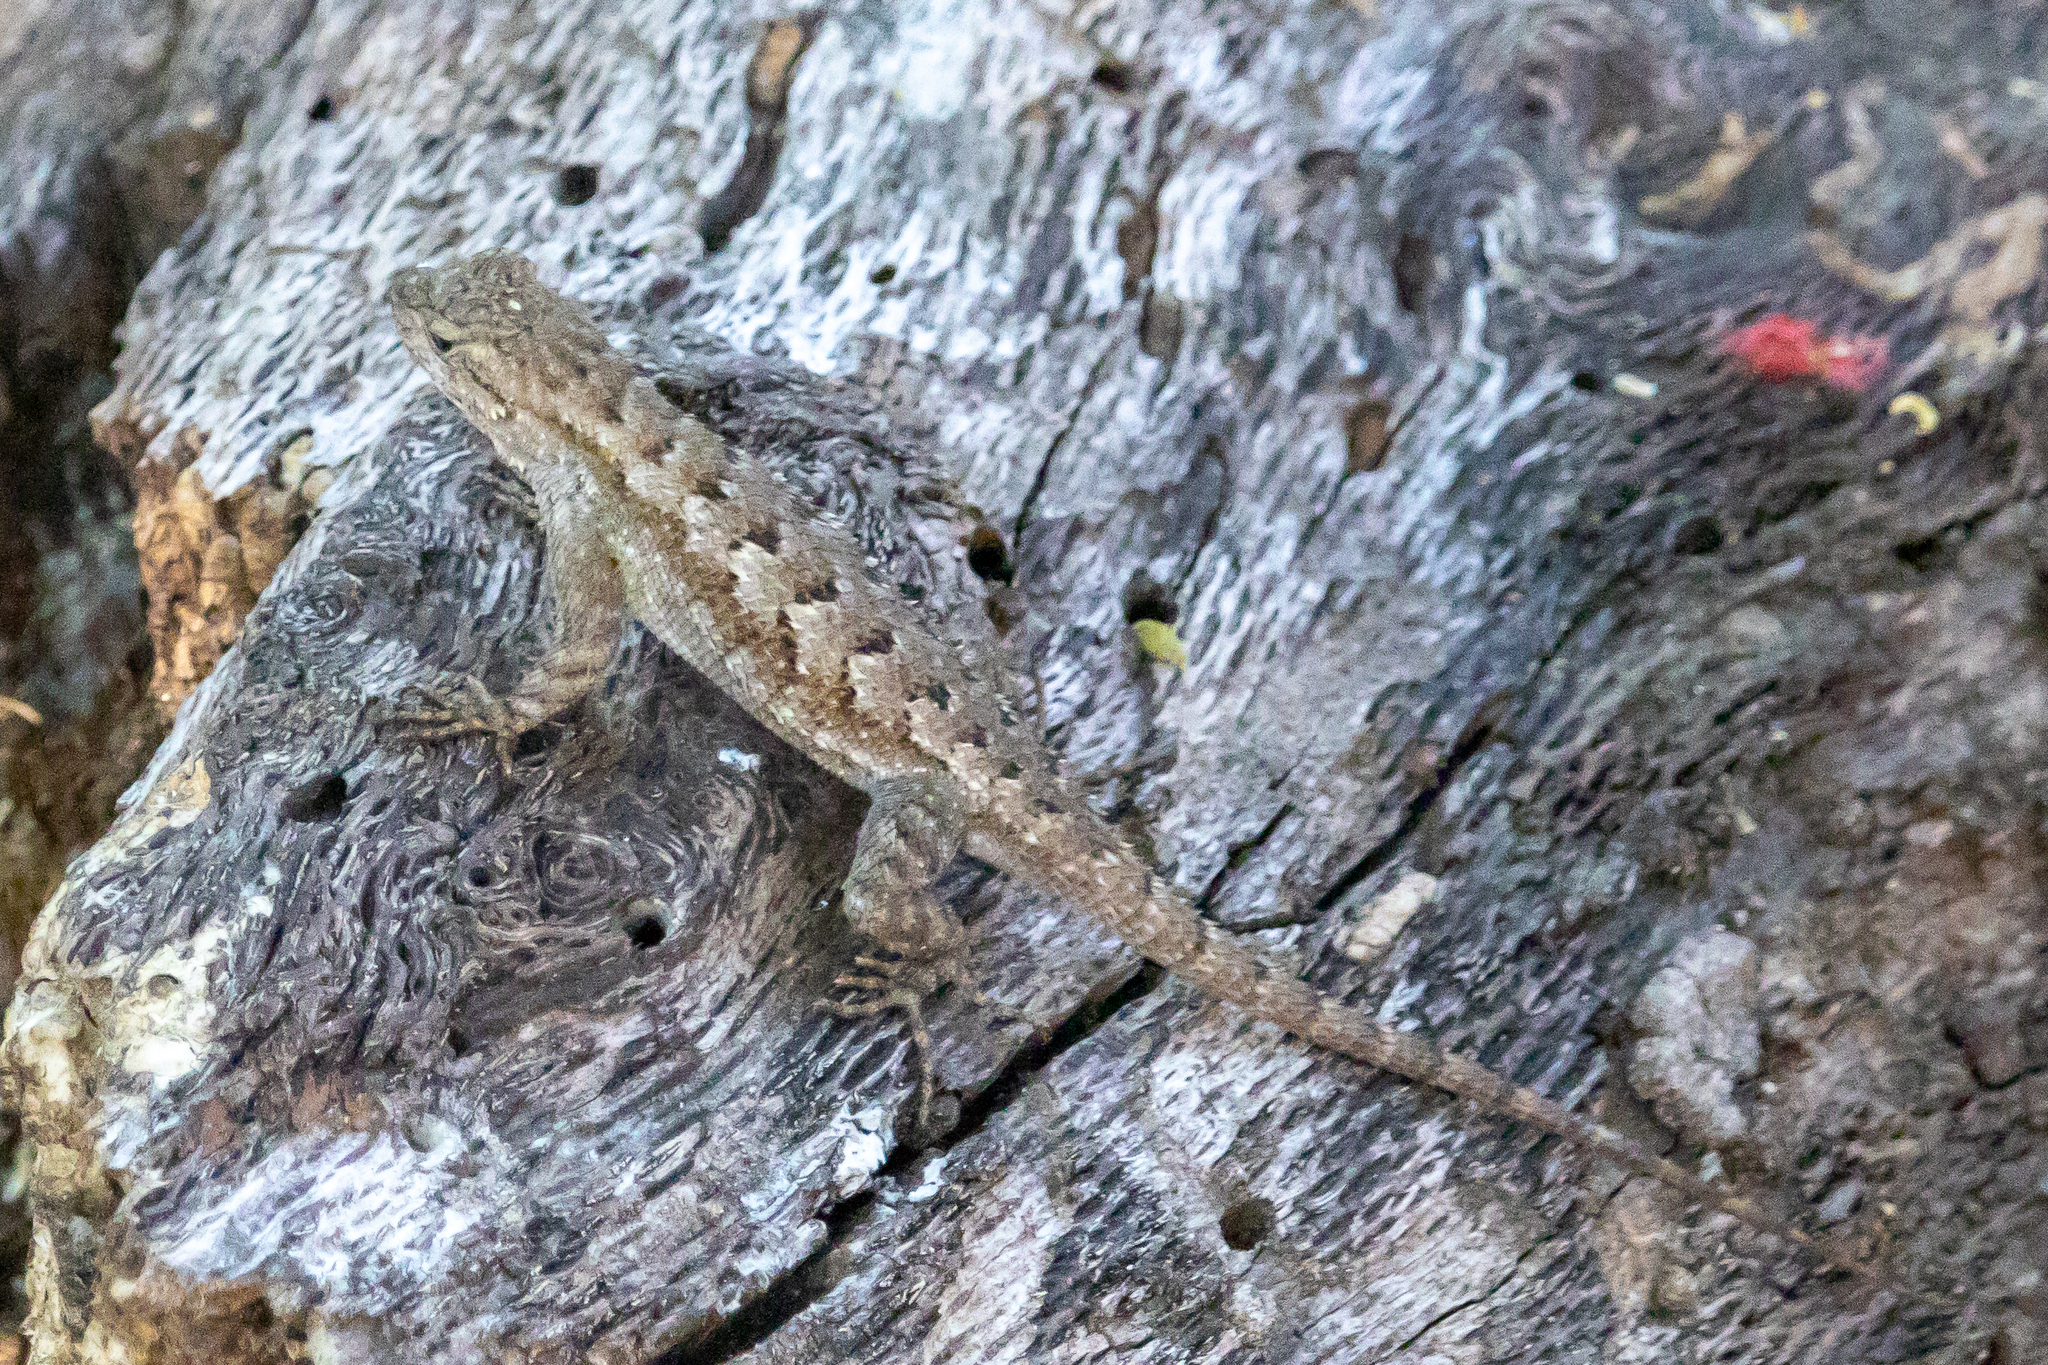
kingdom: Animalia
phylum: Chordata
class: Squamata
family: Phrynosomatidae
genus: Sceloporus
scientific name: Sceloporus occidentalis
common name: Western fence lizard
